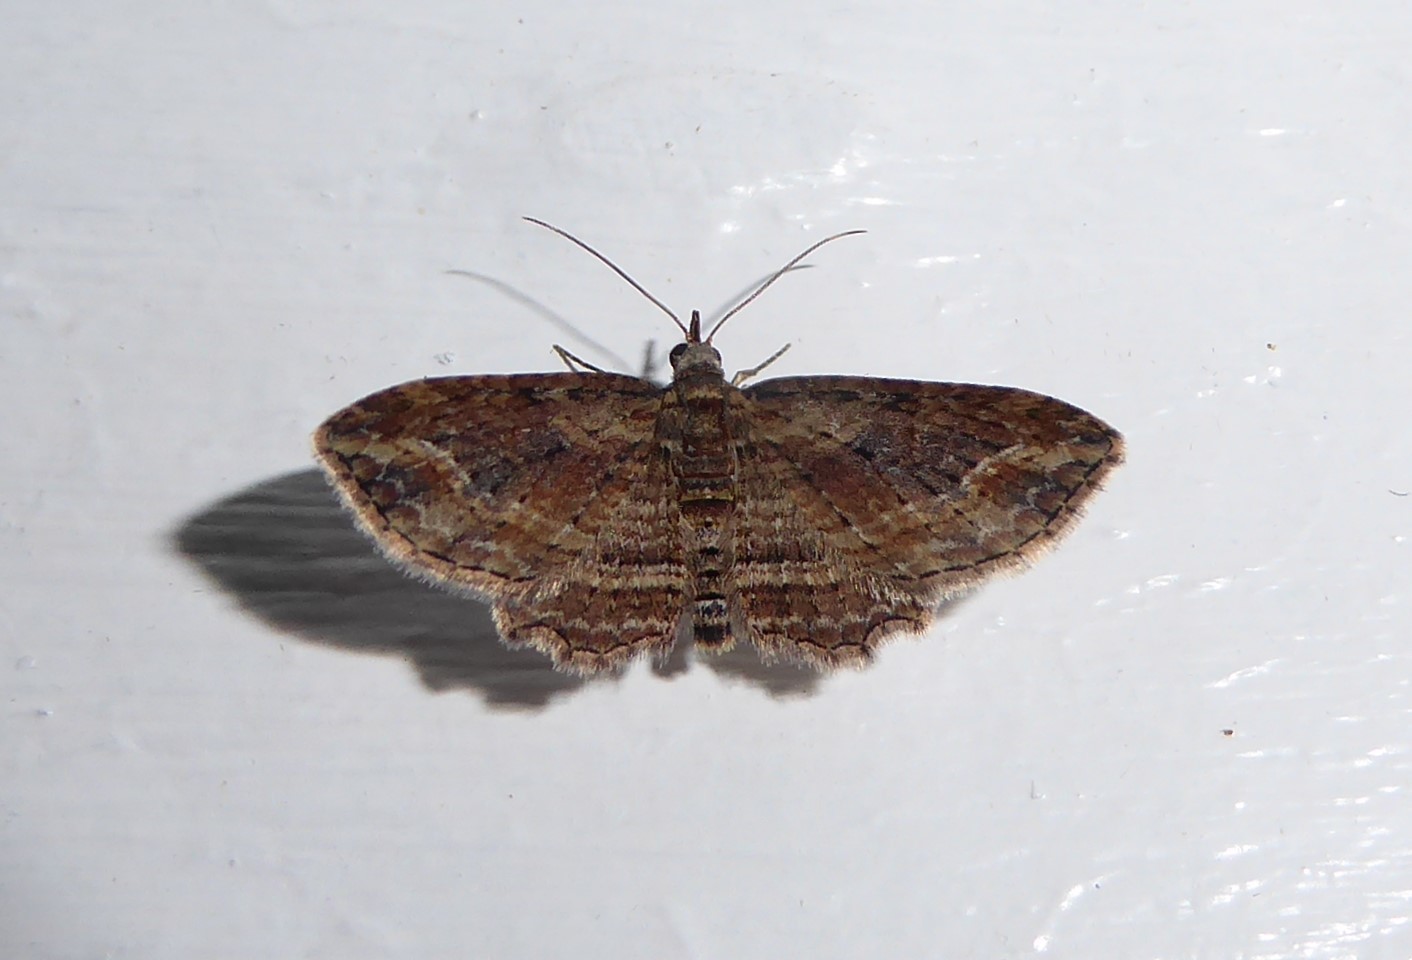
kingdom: Animalia
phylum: Arthropoda
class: Insecta
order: Lepidoptera
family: Geometridae
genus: Chloroclystis
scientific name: Chloroclystis filata
